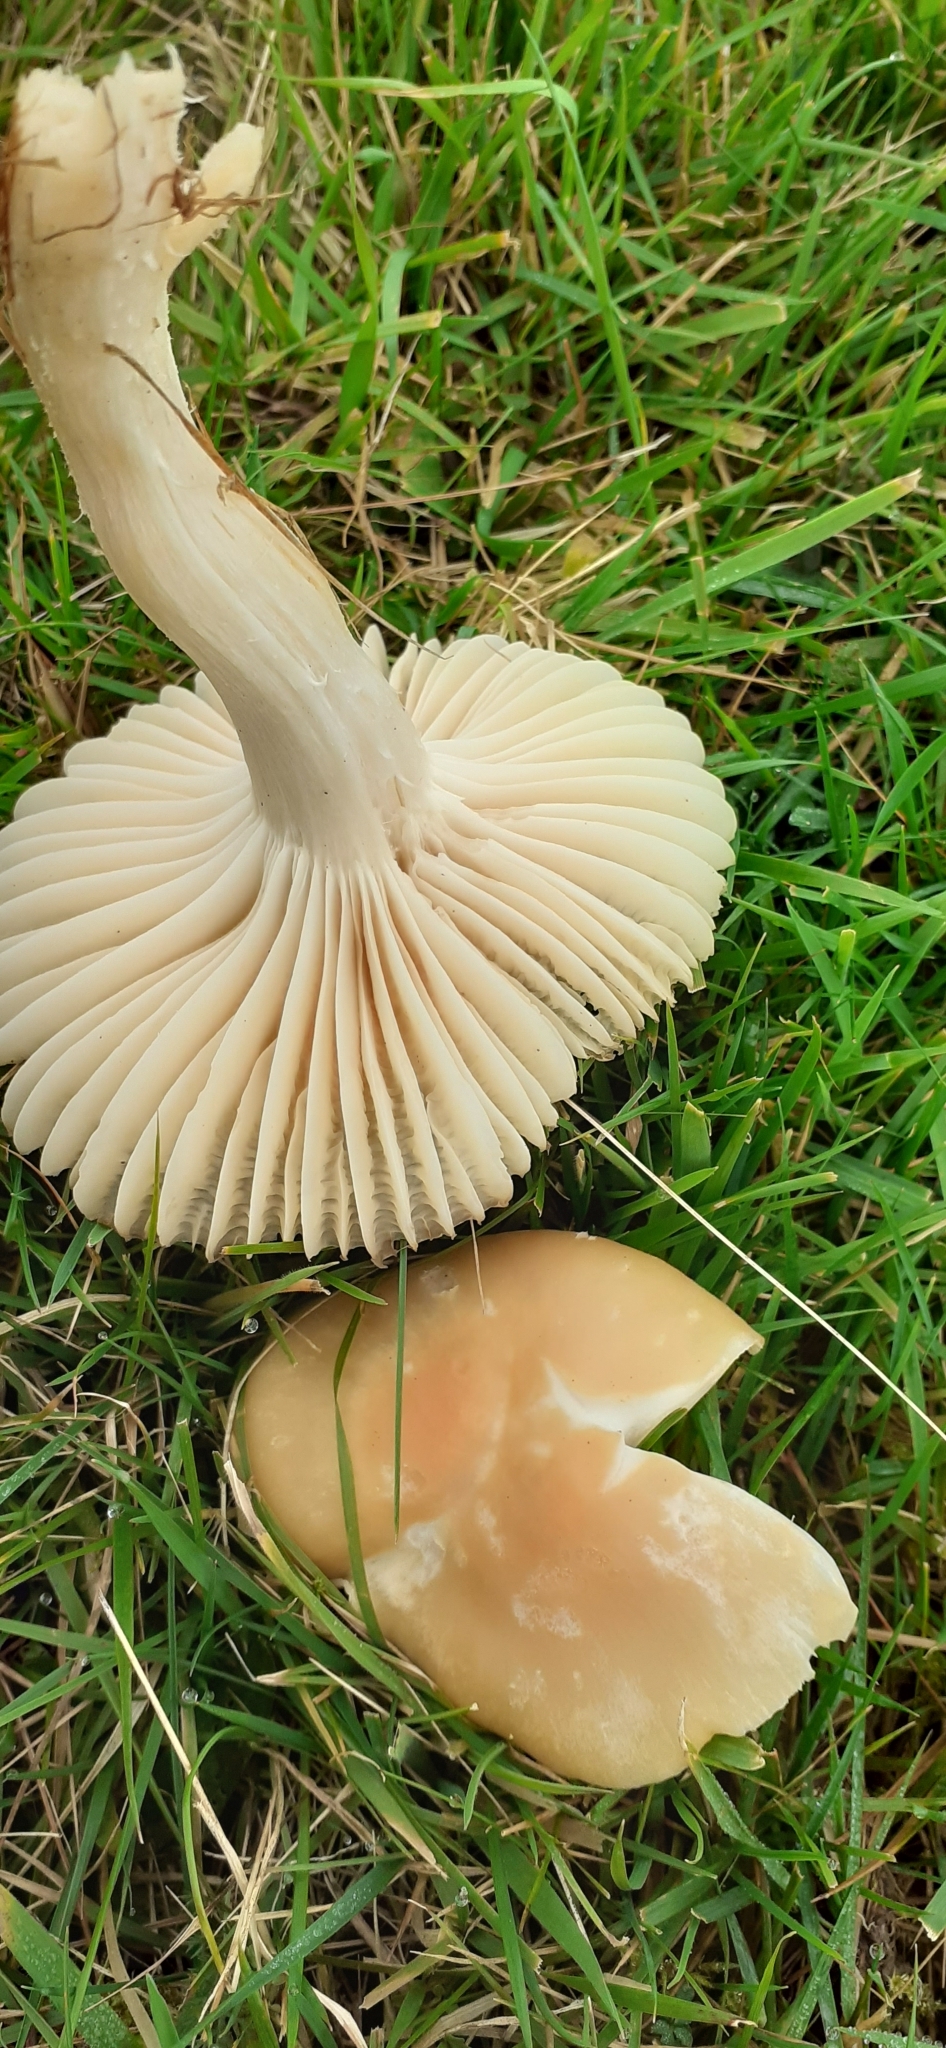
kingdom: Fungi
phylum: Basidiomycota
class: Agaricomycetes
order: Agaricales
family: Hygrophoraceae
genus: Cuphophyllus
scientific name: Cuphophyllus pratensis
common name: Meadow waxcap
